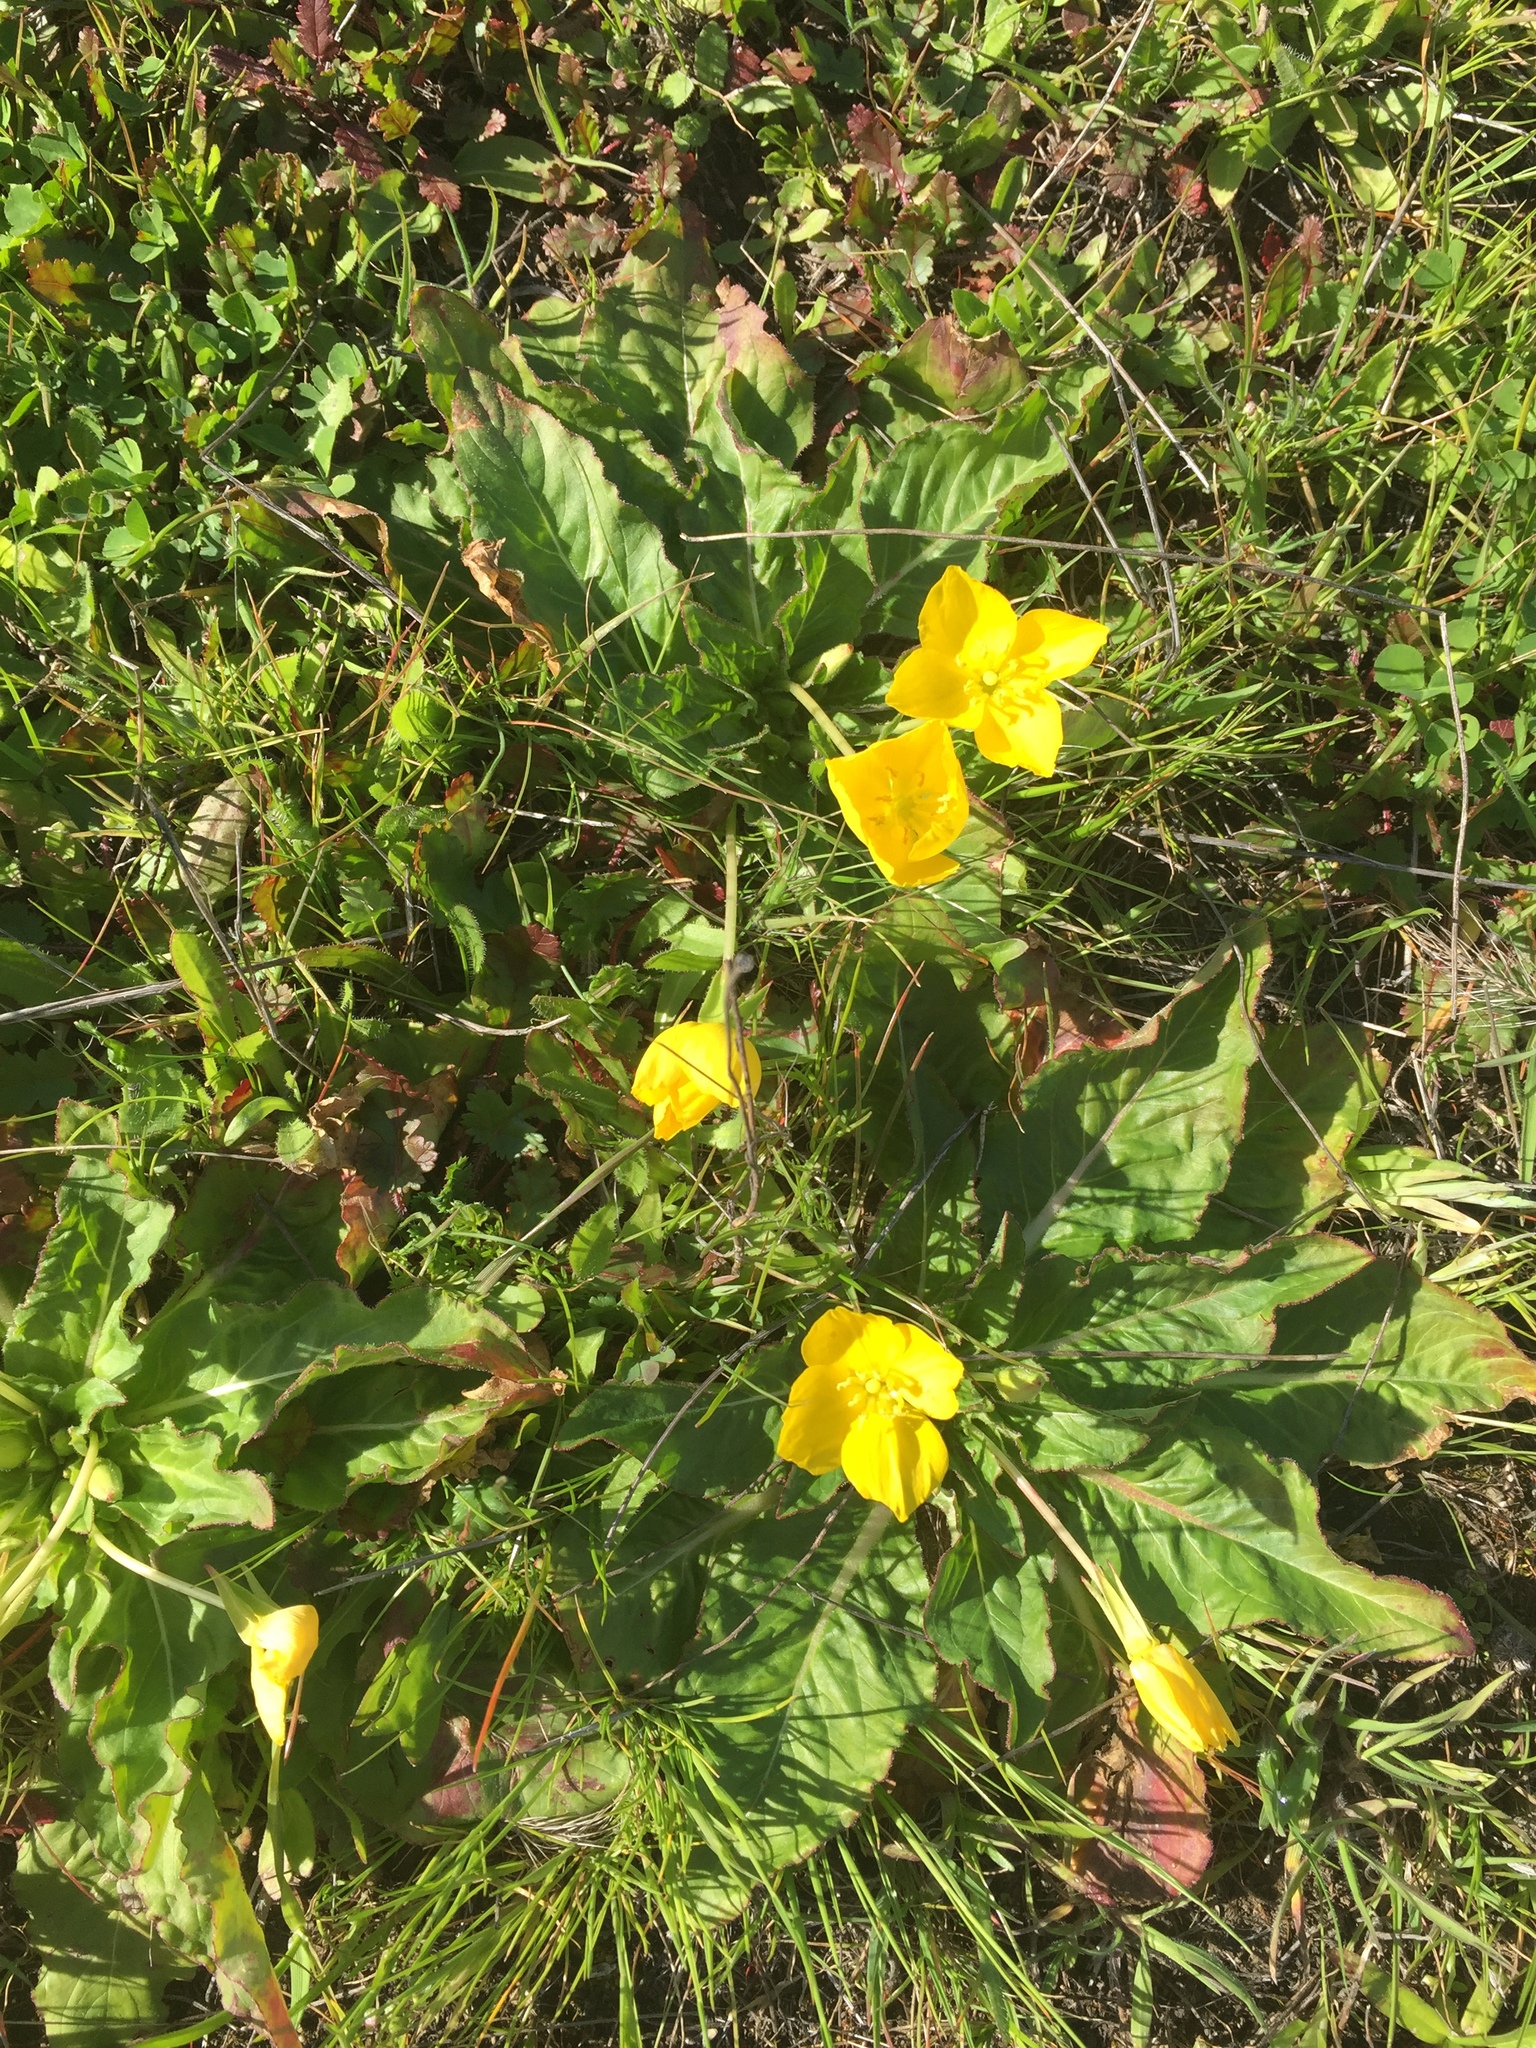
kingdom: Plantae
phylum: Tracheophyta
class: Magnoliopsida
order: Myrtales
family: Onagraceae
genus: Taraxia
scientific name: Taraxia ovata
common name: Goldeneggs
